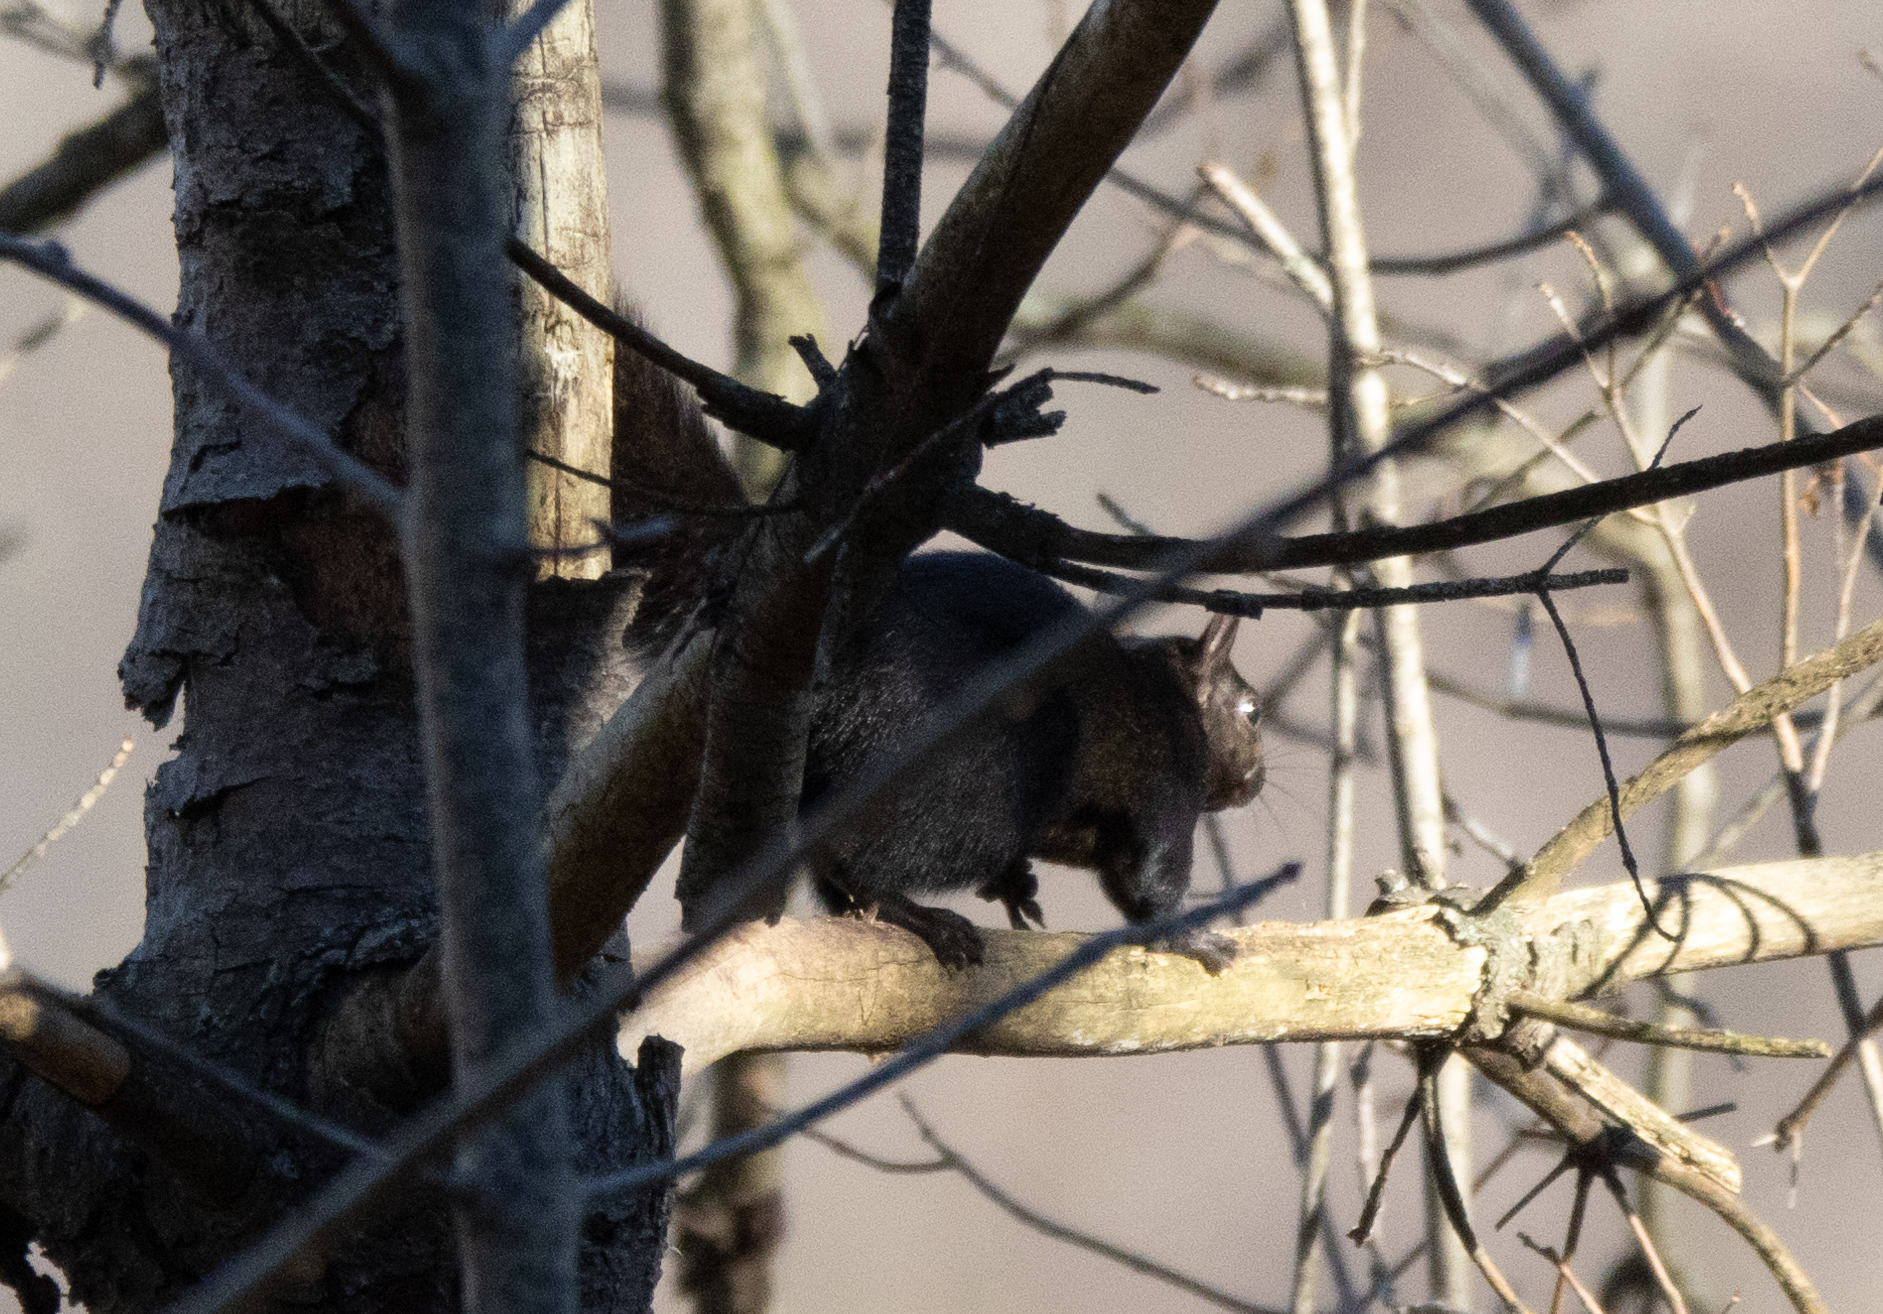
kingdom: Animalia
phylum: Chordata
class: Mammalia
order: Rodentia
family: Sciuridae
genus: Sciurus
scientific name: Sciurus carolinensis
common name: Eastern gray squirrel
